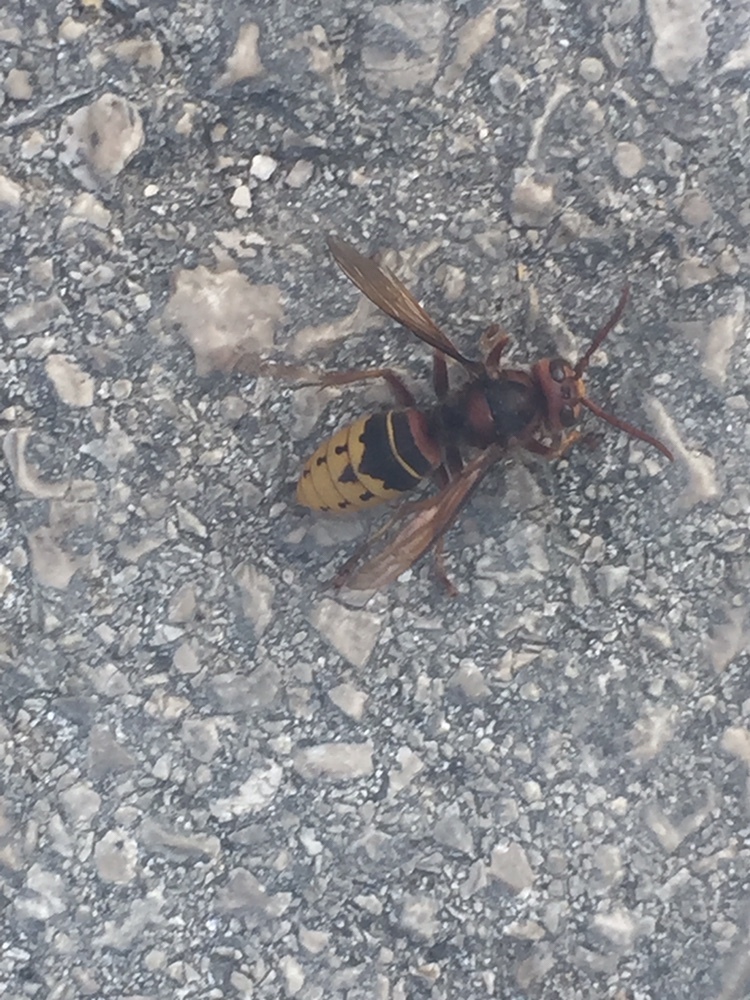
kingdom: Animalia
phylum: Arthropoda
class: Insecta
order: Hymenoptera
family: Vespidae
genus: Vespa
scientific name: Vespa crabro
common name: Hornet
